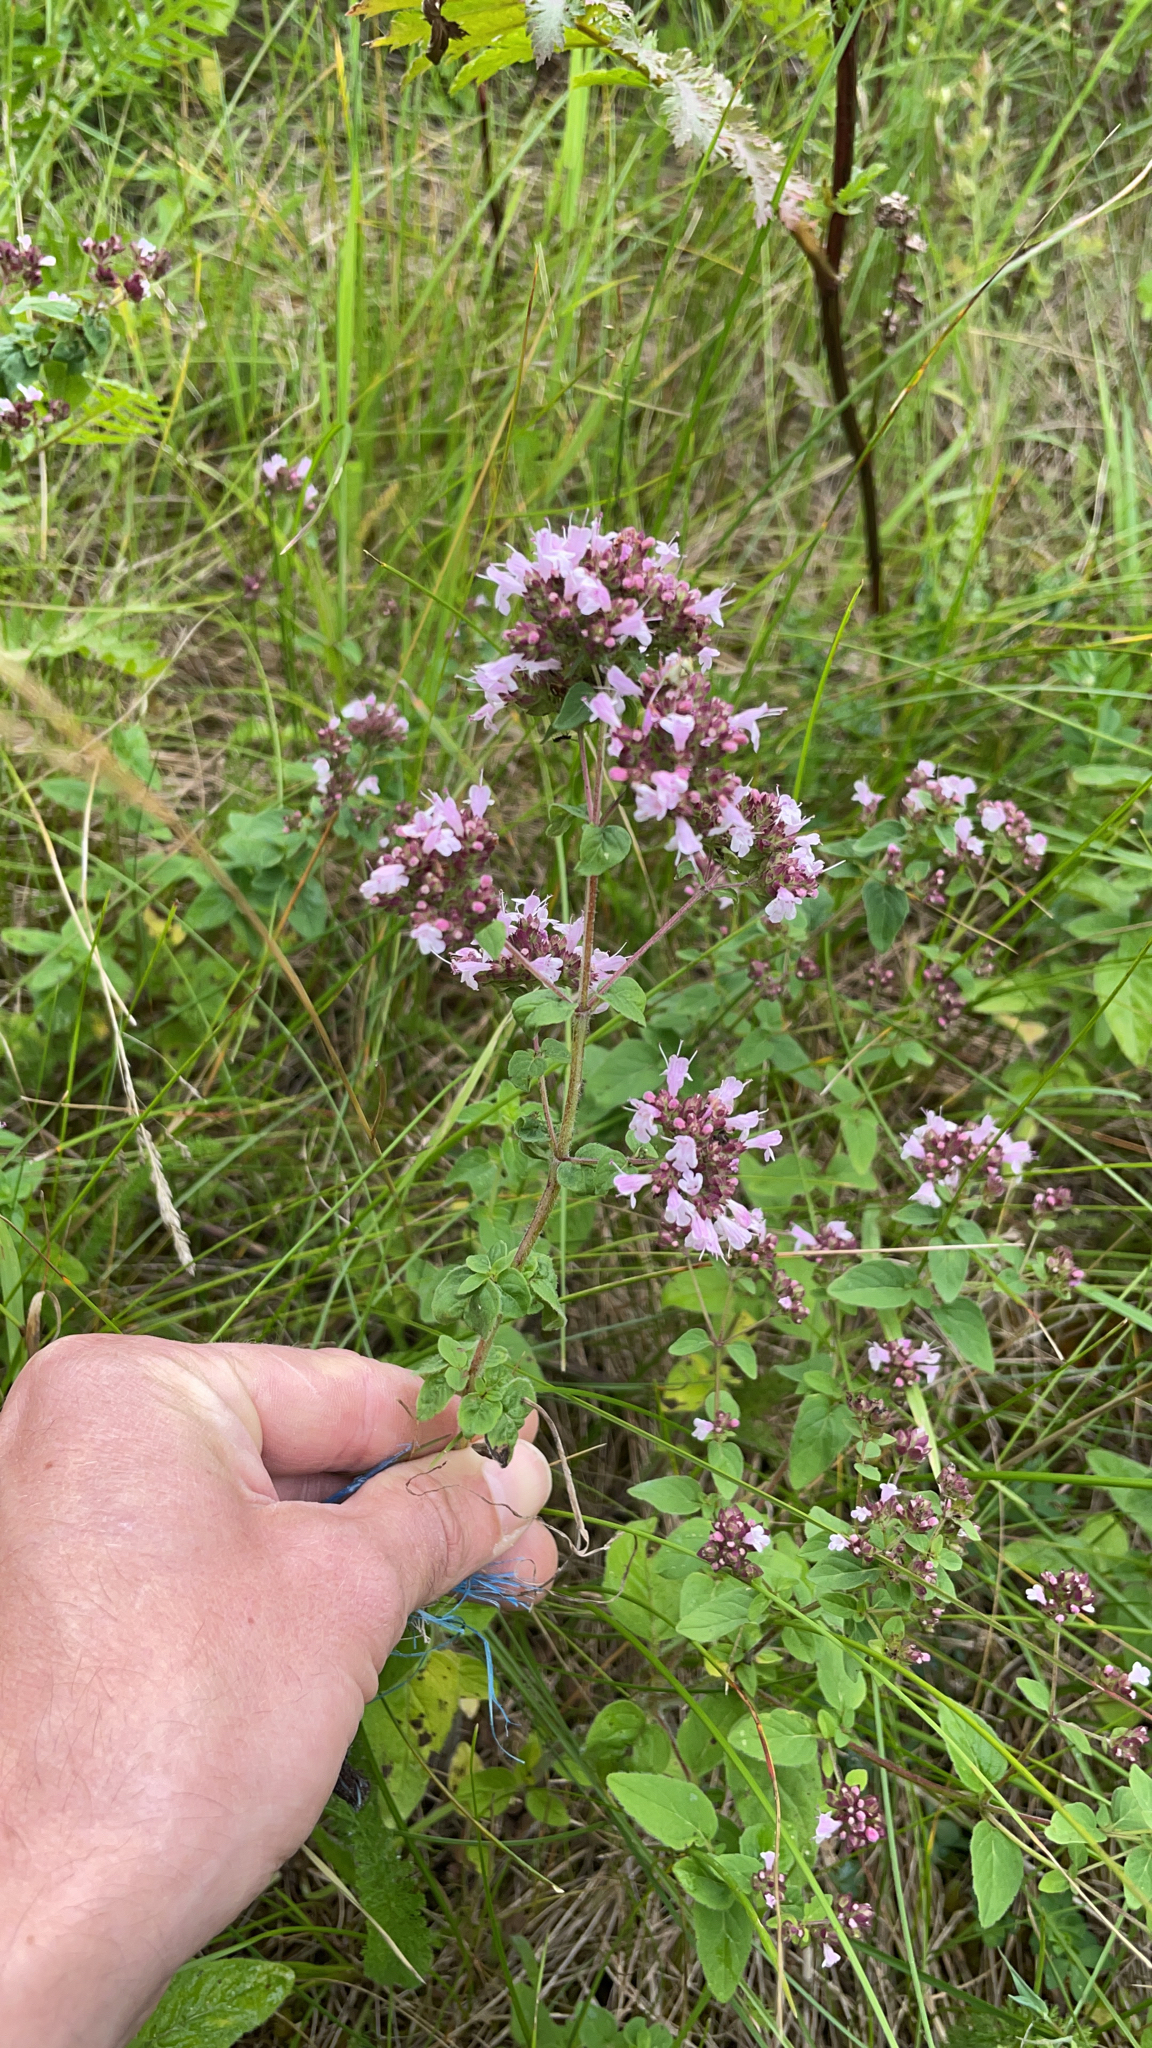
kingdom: Plantae
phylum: Tracheophyta
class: Magnoliopsida
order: Lamiales
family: Lamiaceae
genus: Origanum
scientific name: Origanum vulgare
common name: Wild marjoram
